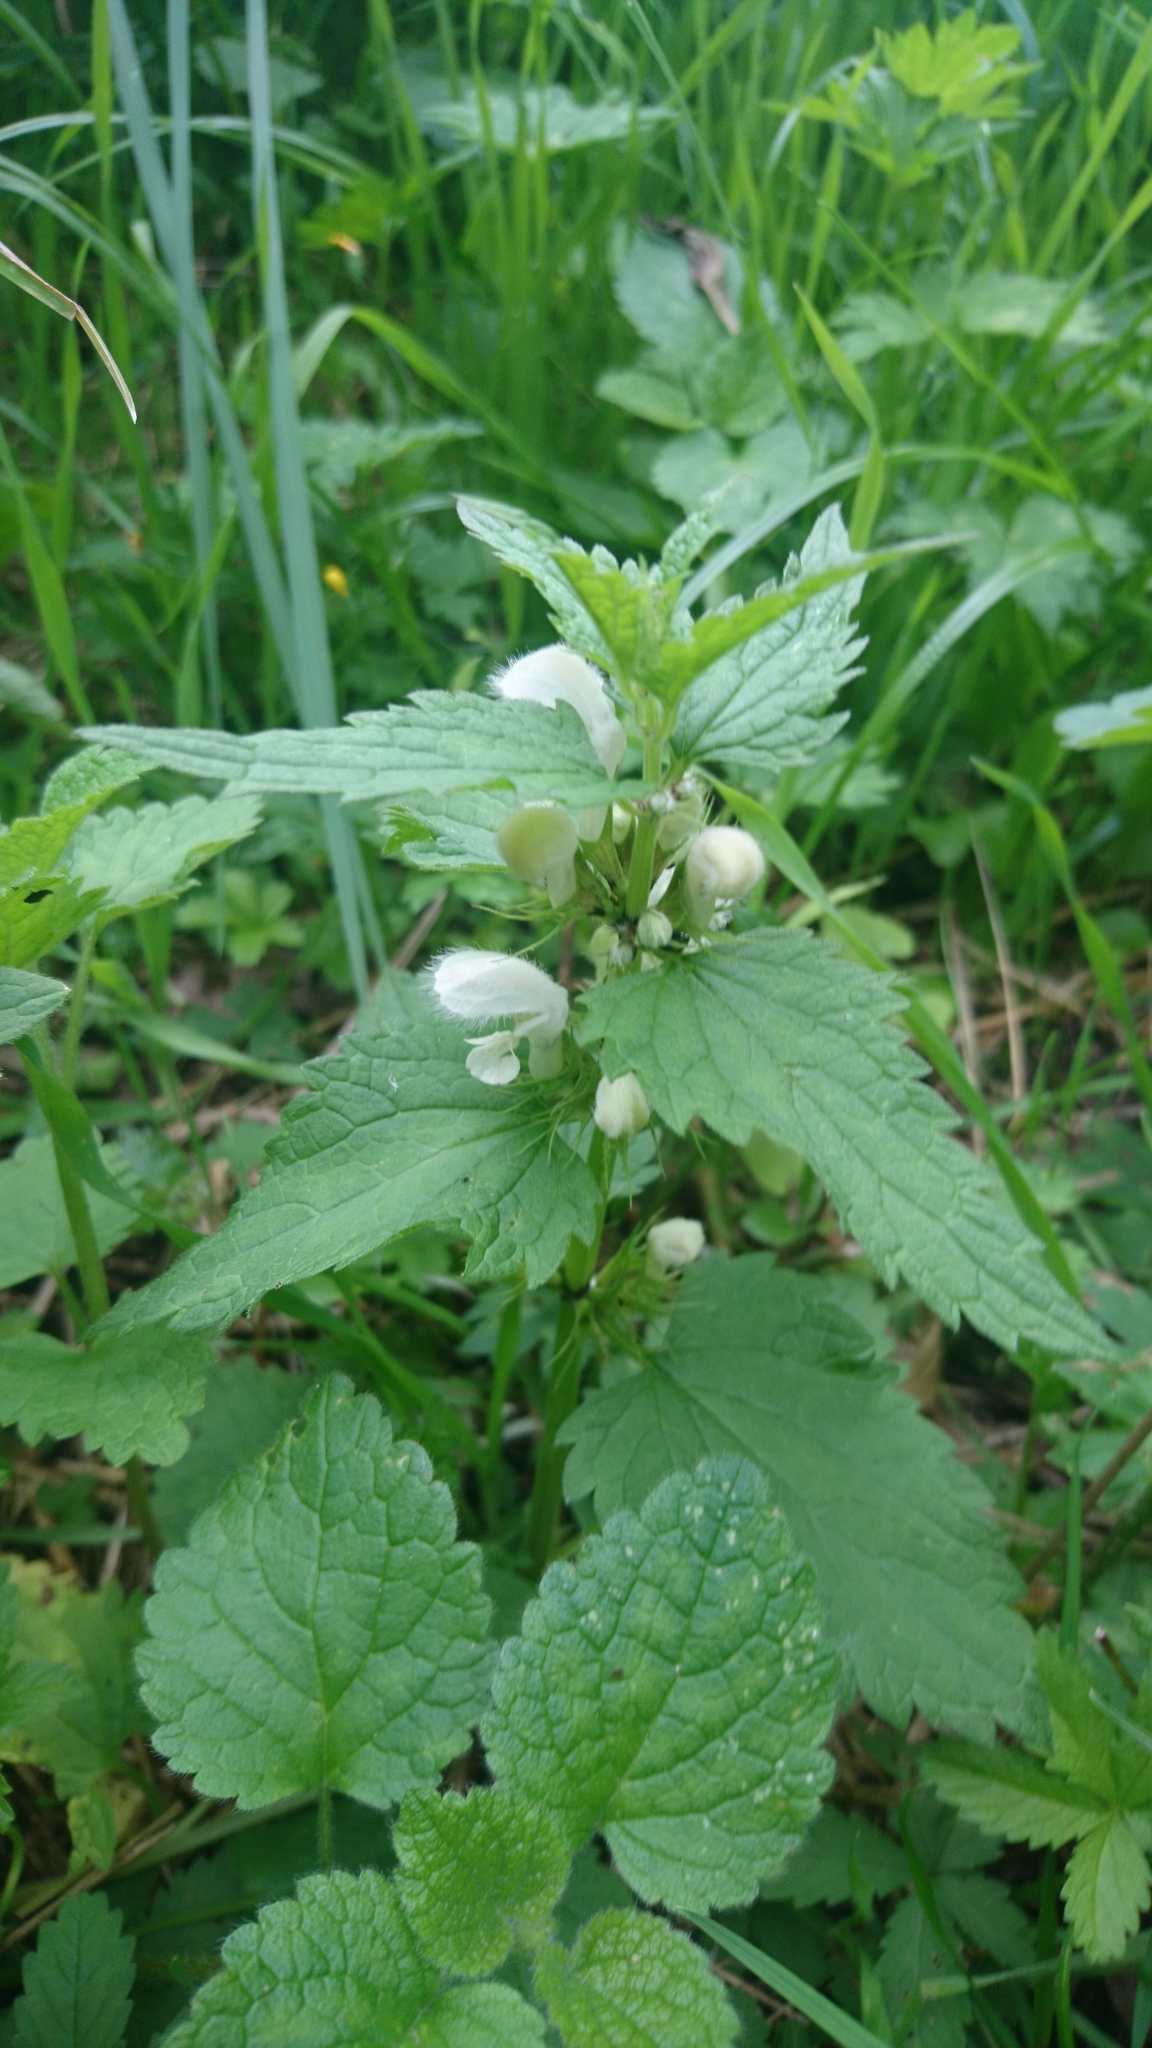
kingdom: Plantae
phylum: Tracheophyta
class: Magnoliopsida
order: Lamiales
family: Lamiaceae
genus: Lamium
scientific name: Lamium album
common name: White dead-nettle
